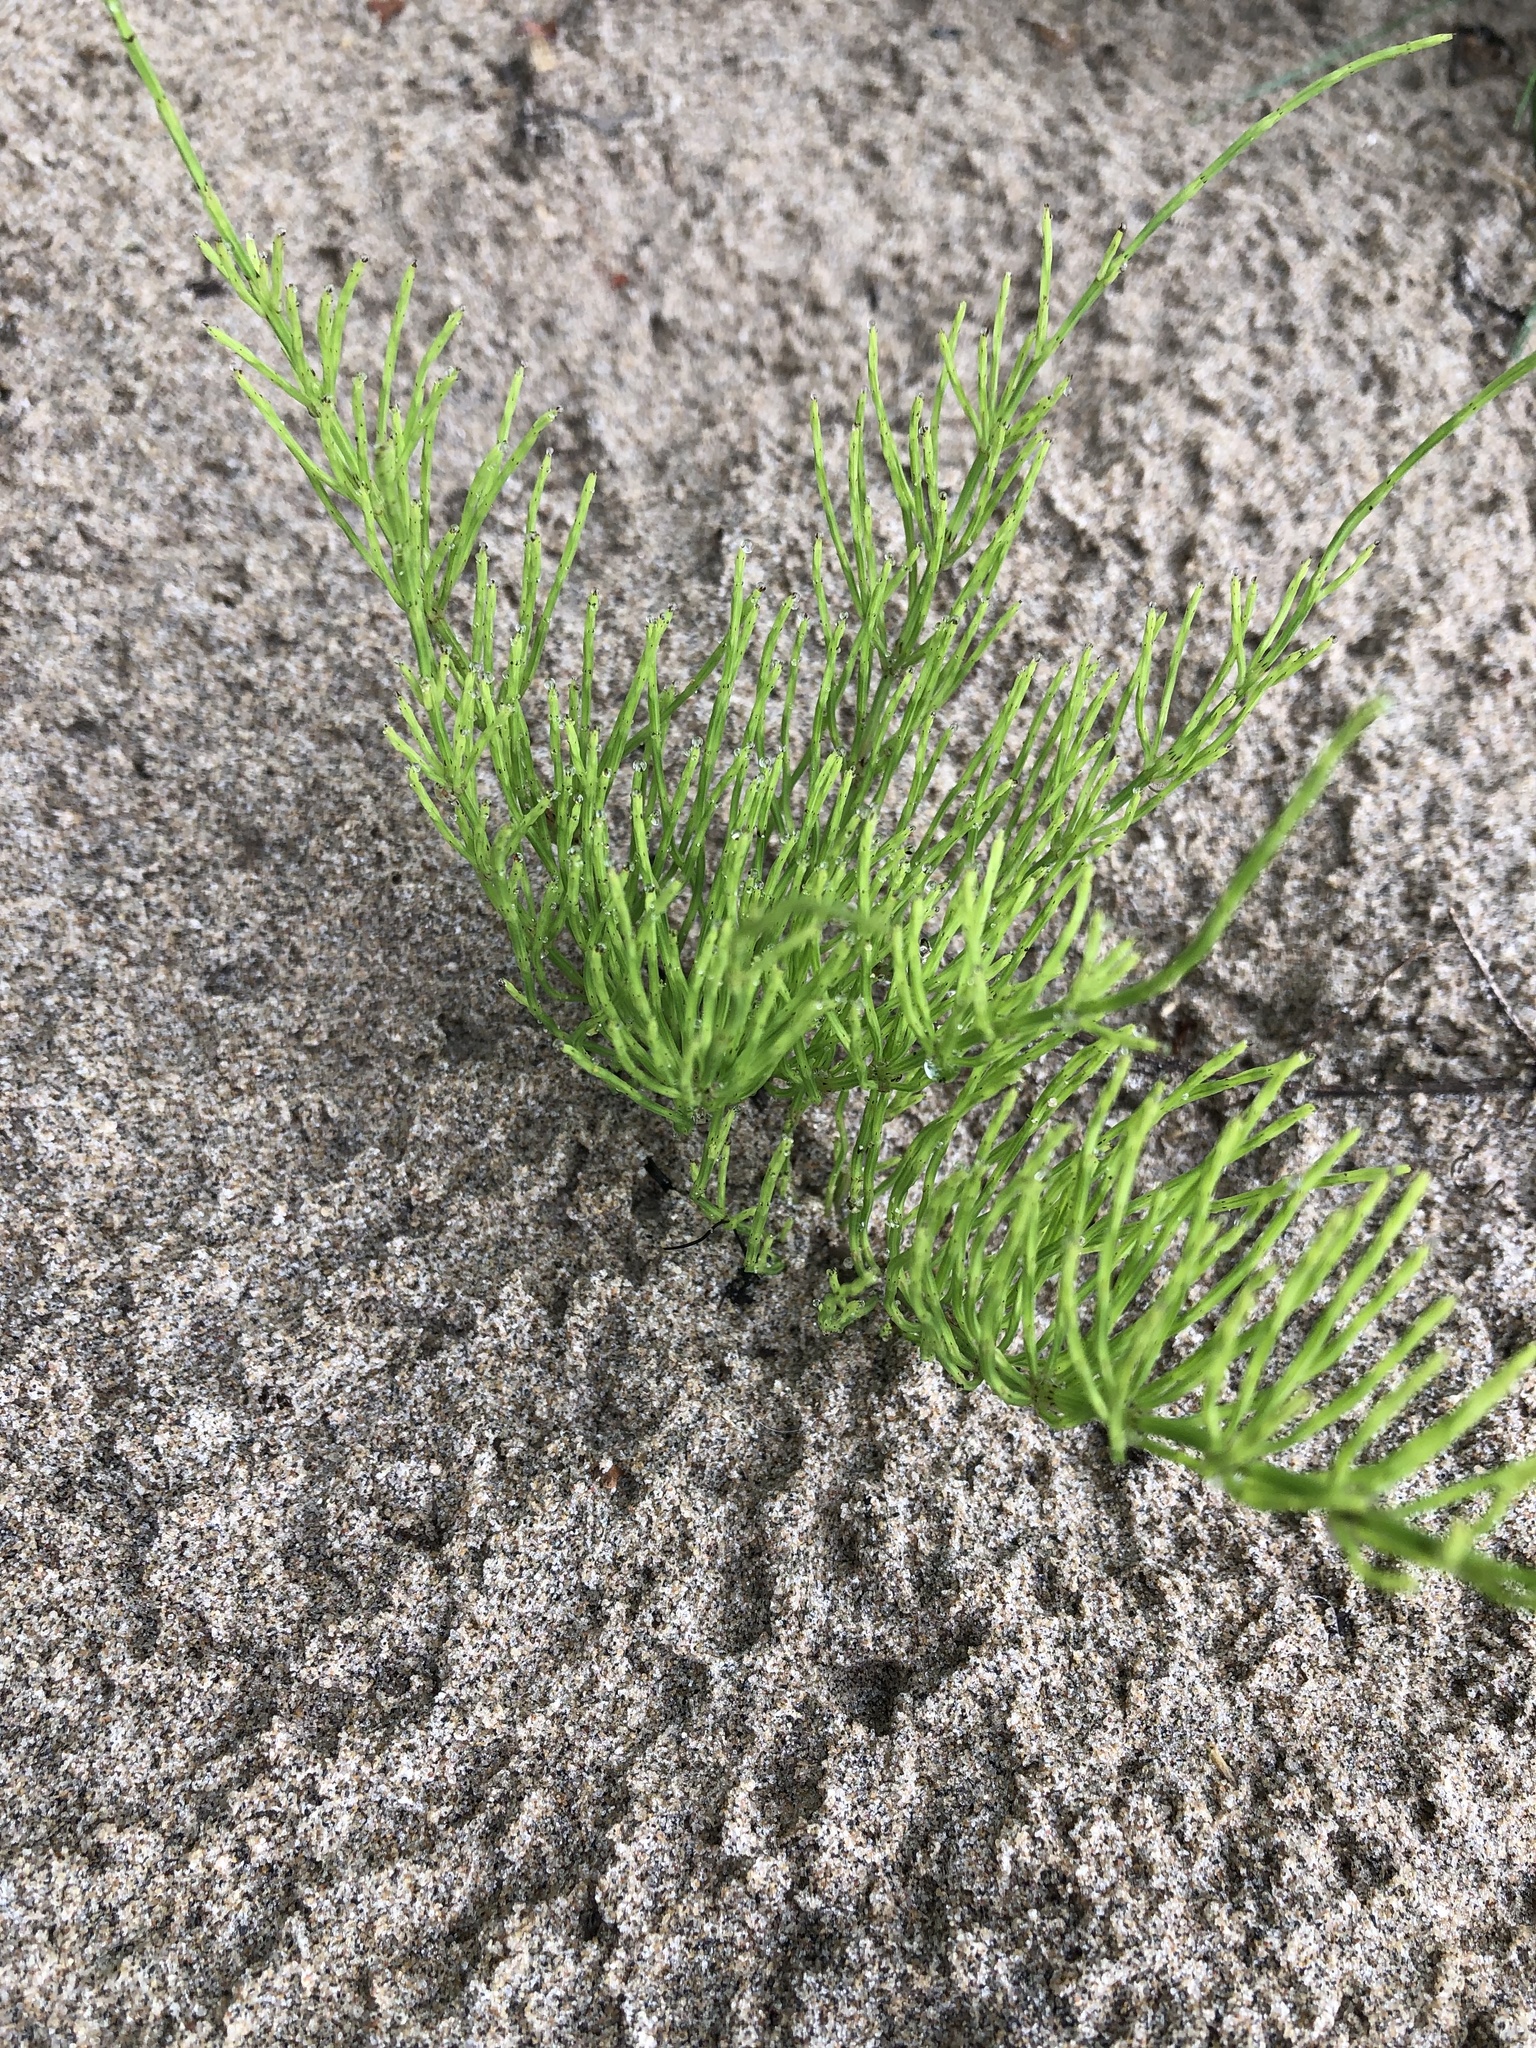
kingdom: Plantae
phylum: Tracheophyta
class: Polypodiopsida
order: Equisetales
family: Equisetaceae
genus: Equisetum
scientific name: Equisetum arvense
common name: Field horsetail
